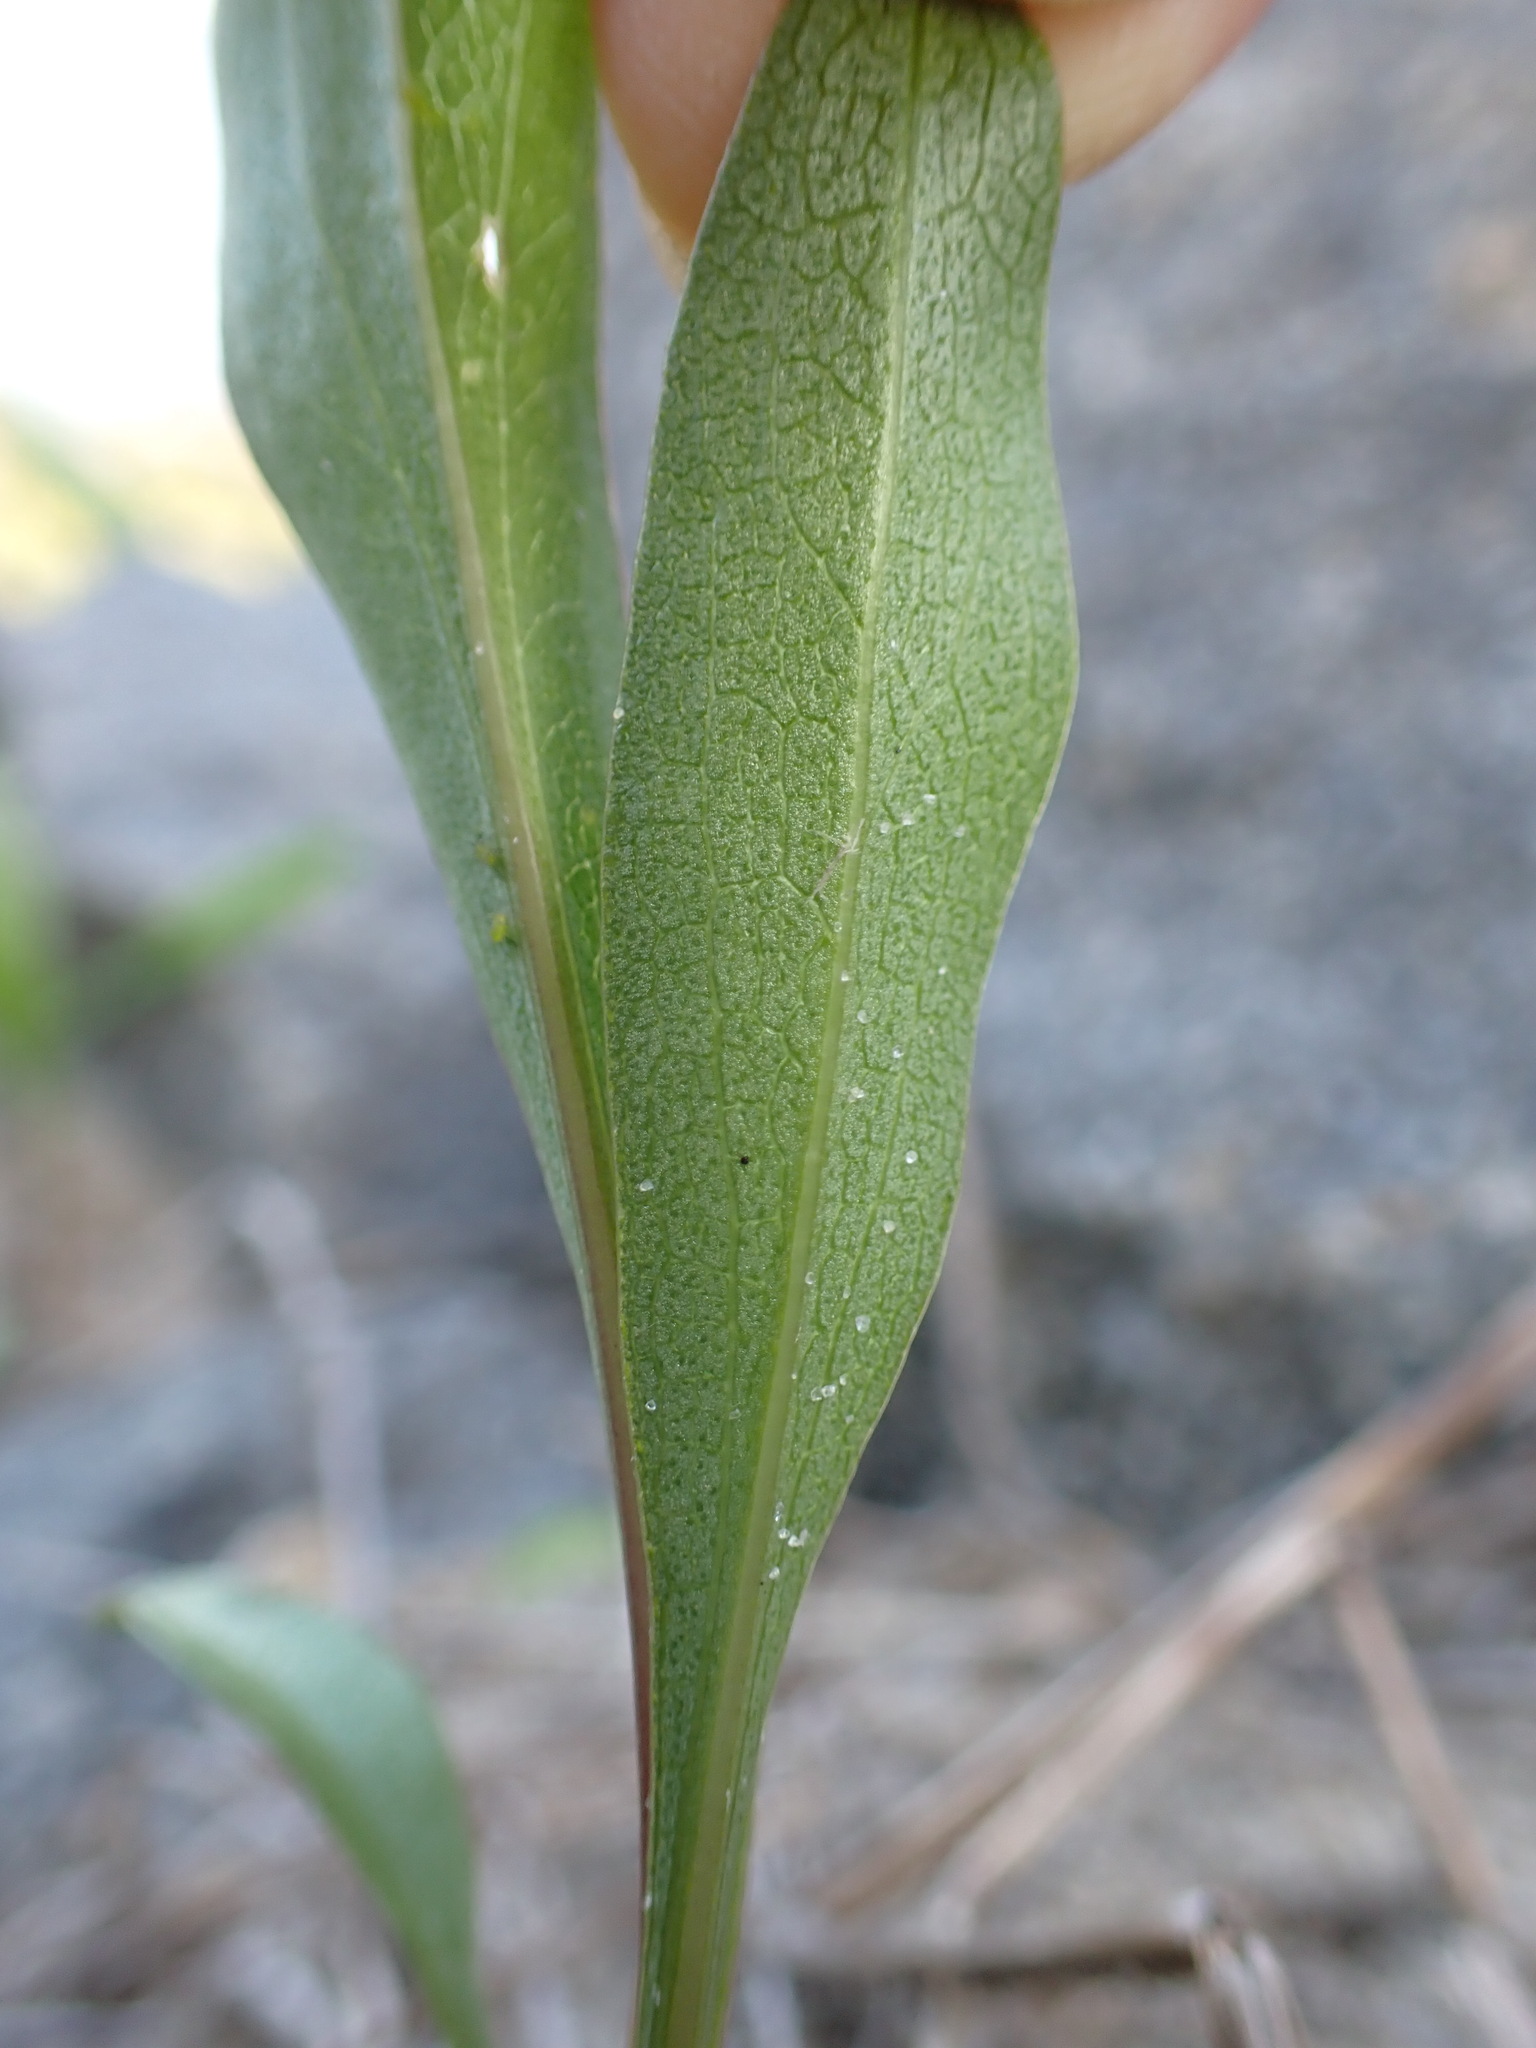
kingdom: Animalia
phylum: Arthropoda
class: Insecta
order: Diptera
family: Cecidomyiidae
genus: Asteromyia
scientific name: Asteromyia carbonifera
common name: Carbonifera goldenrod gall midge
